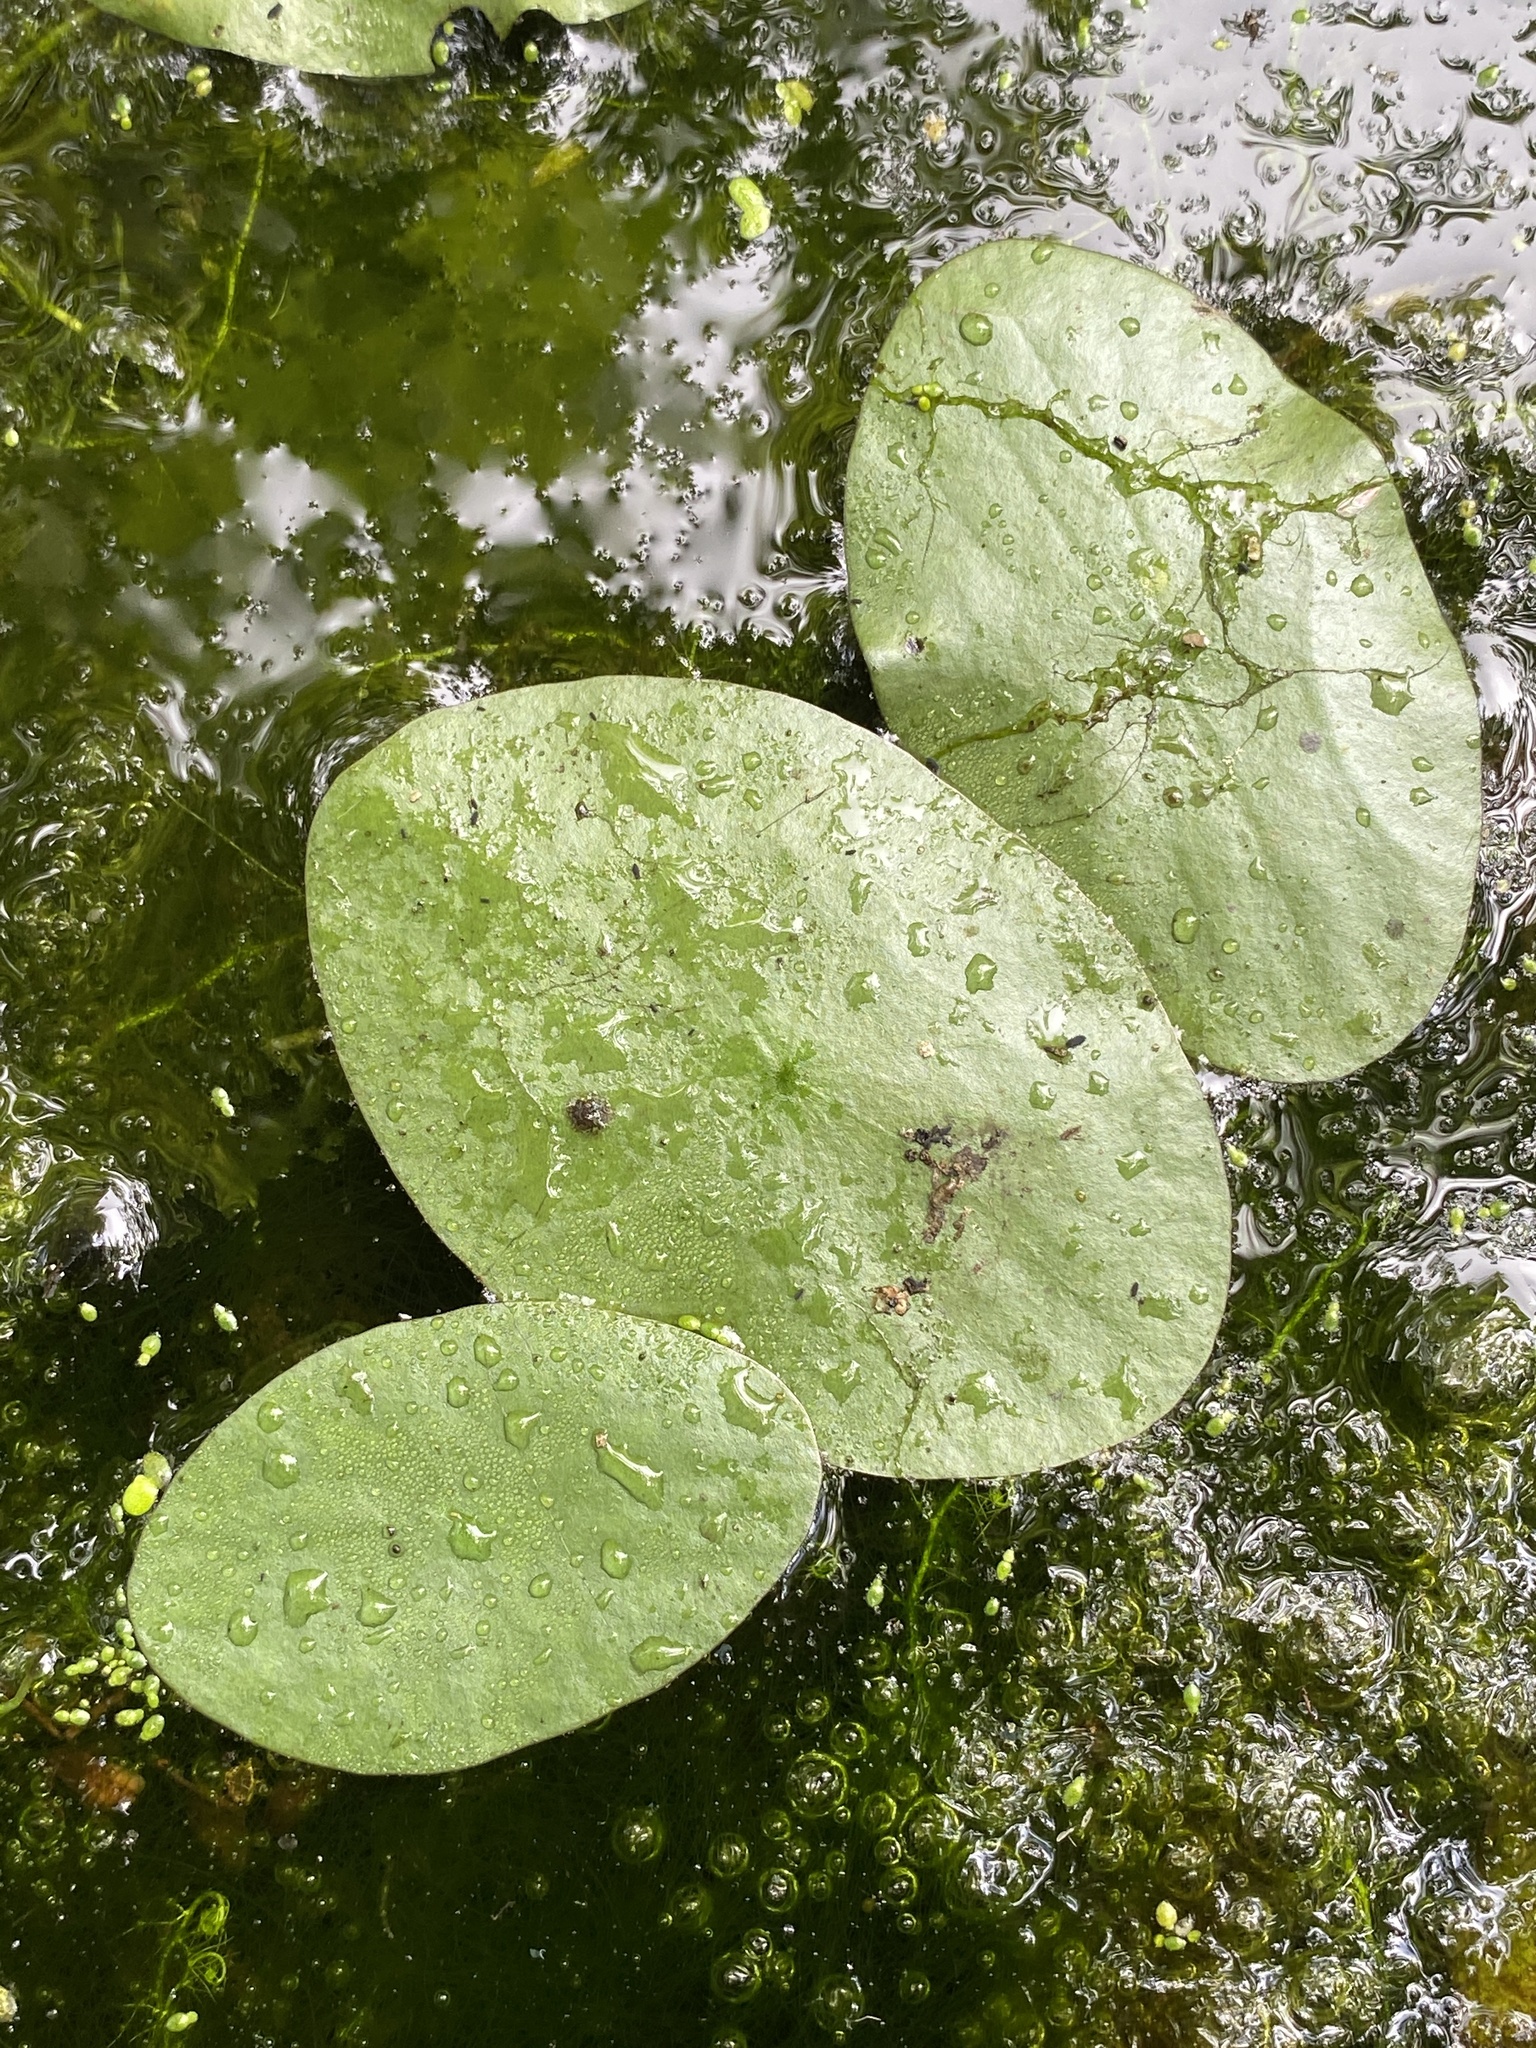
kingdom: Plantae
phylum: Tracheophyta
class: Magnoliopsida
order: Nymphaeales
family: Cabombaceae
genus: Brasenia
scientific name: Brasenia schreberi
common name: Water-shield
